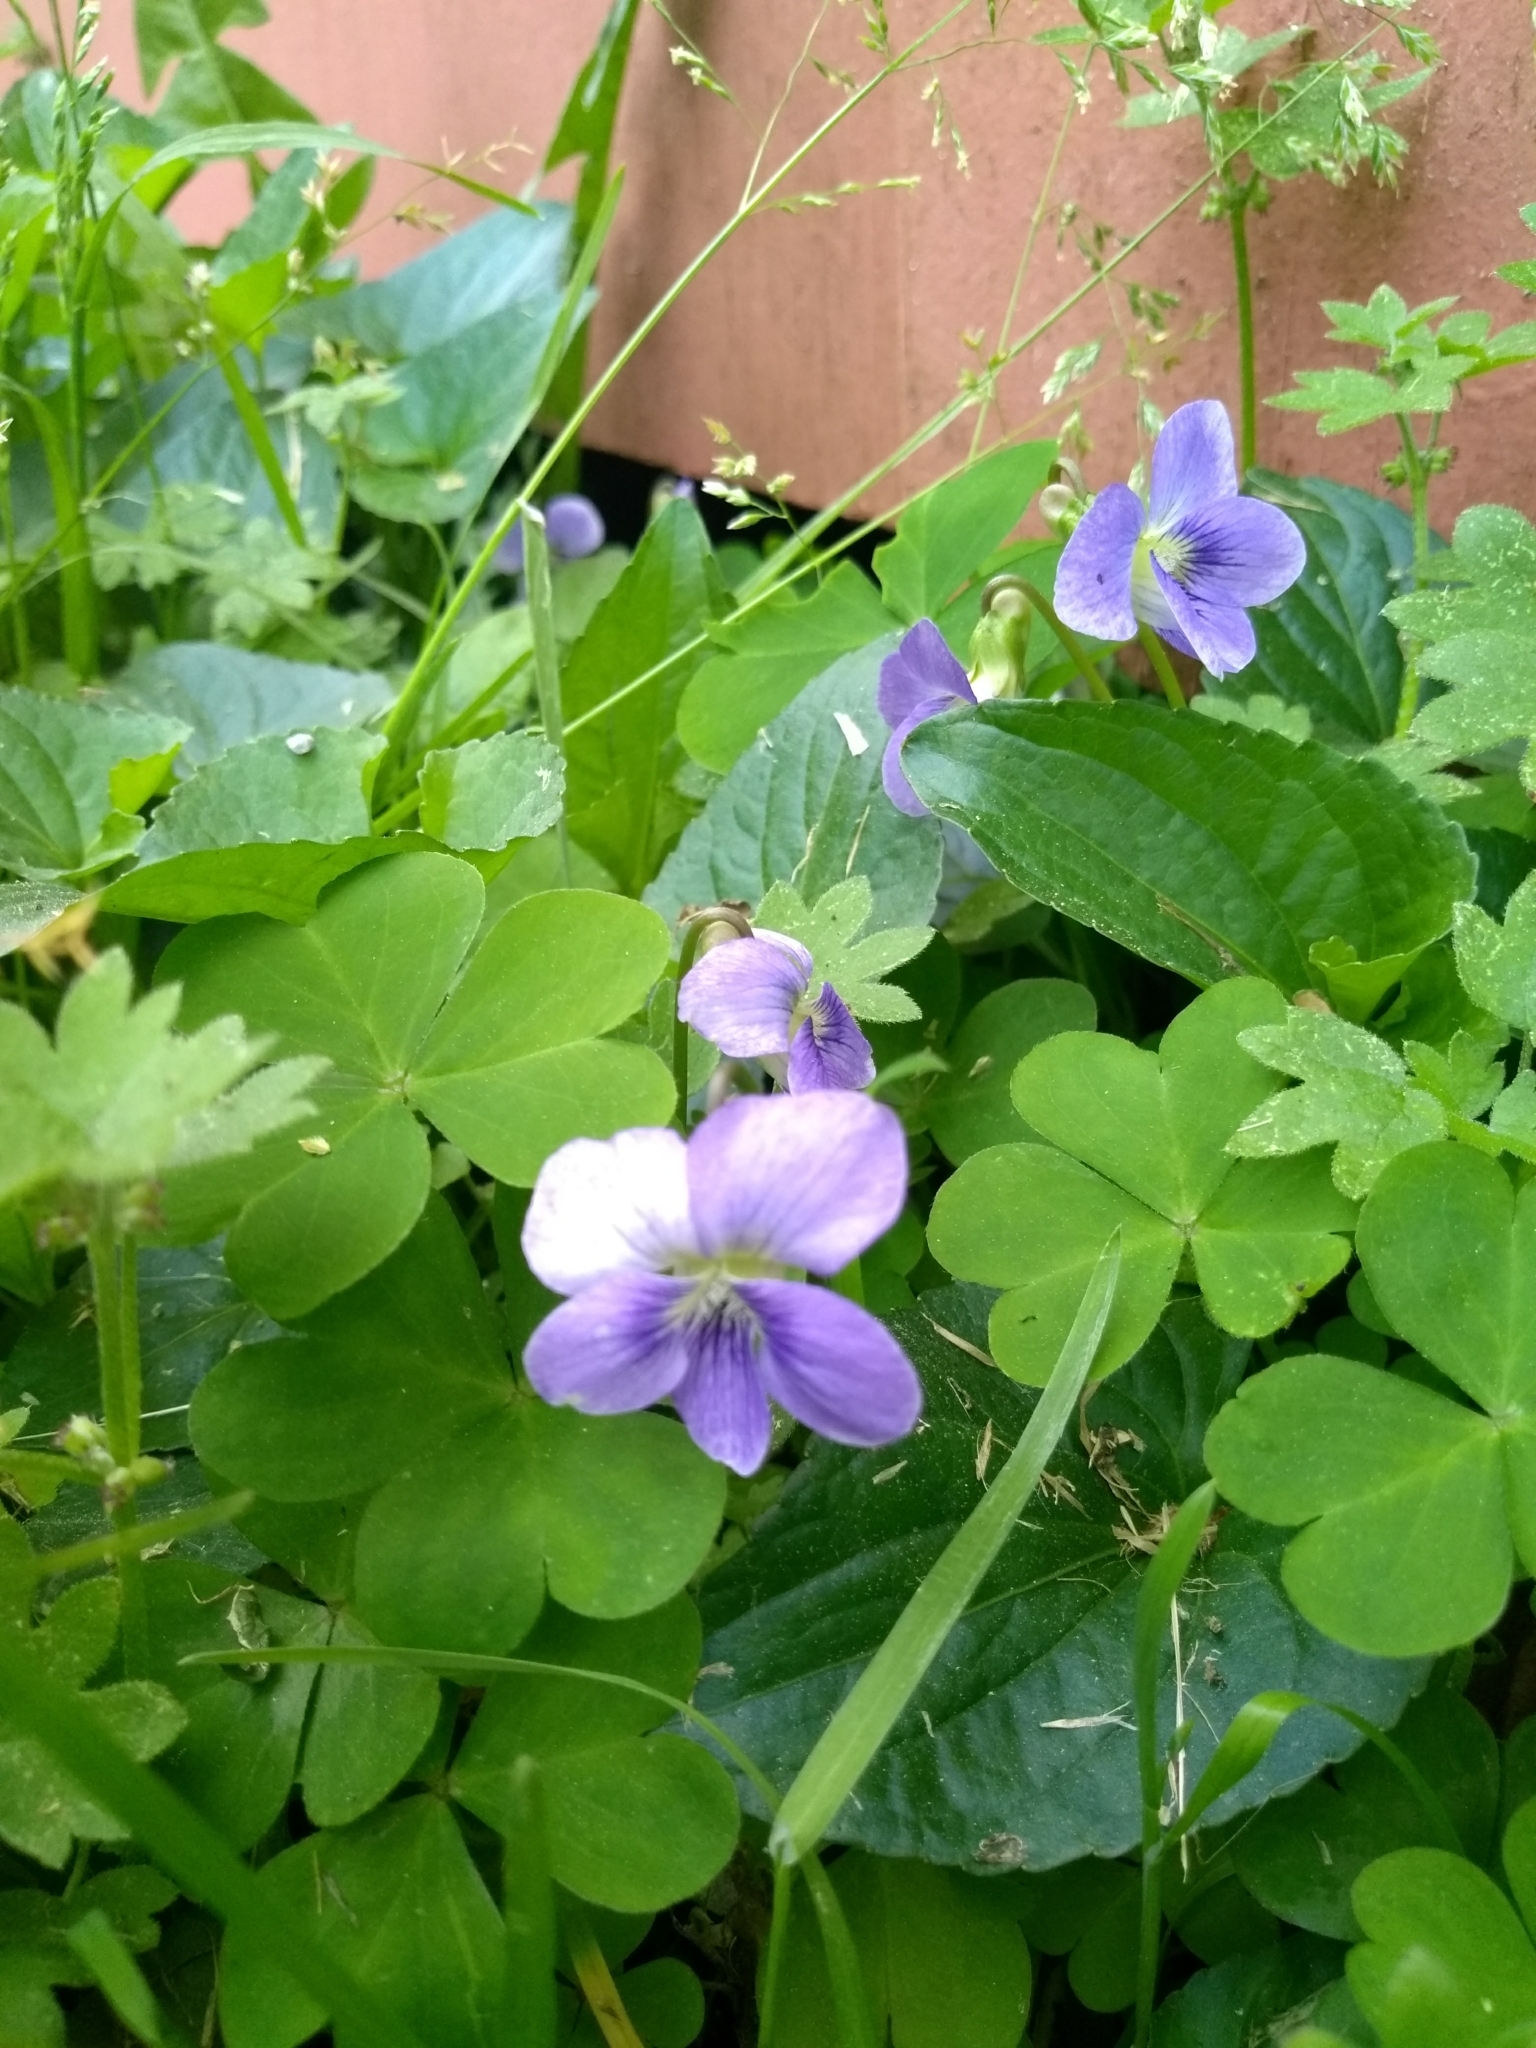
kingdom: Plantae
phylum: Tracheophyta
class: Magnoliopsida
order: Malpighiales
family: Violaceae
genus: Viola
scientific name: Viola sororia
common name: Dooryard violet
